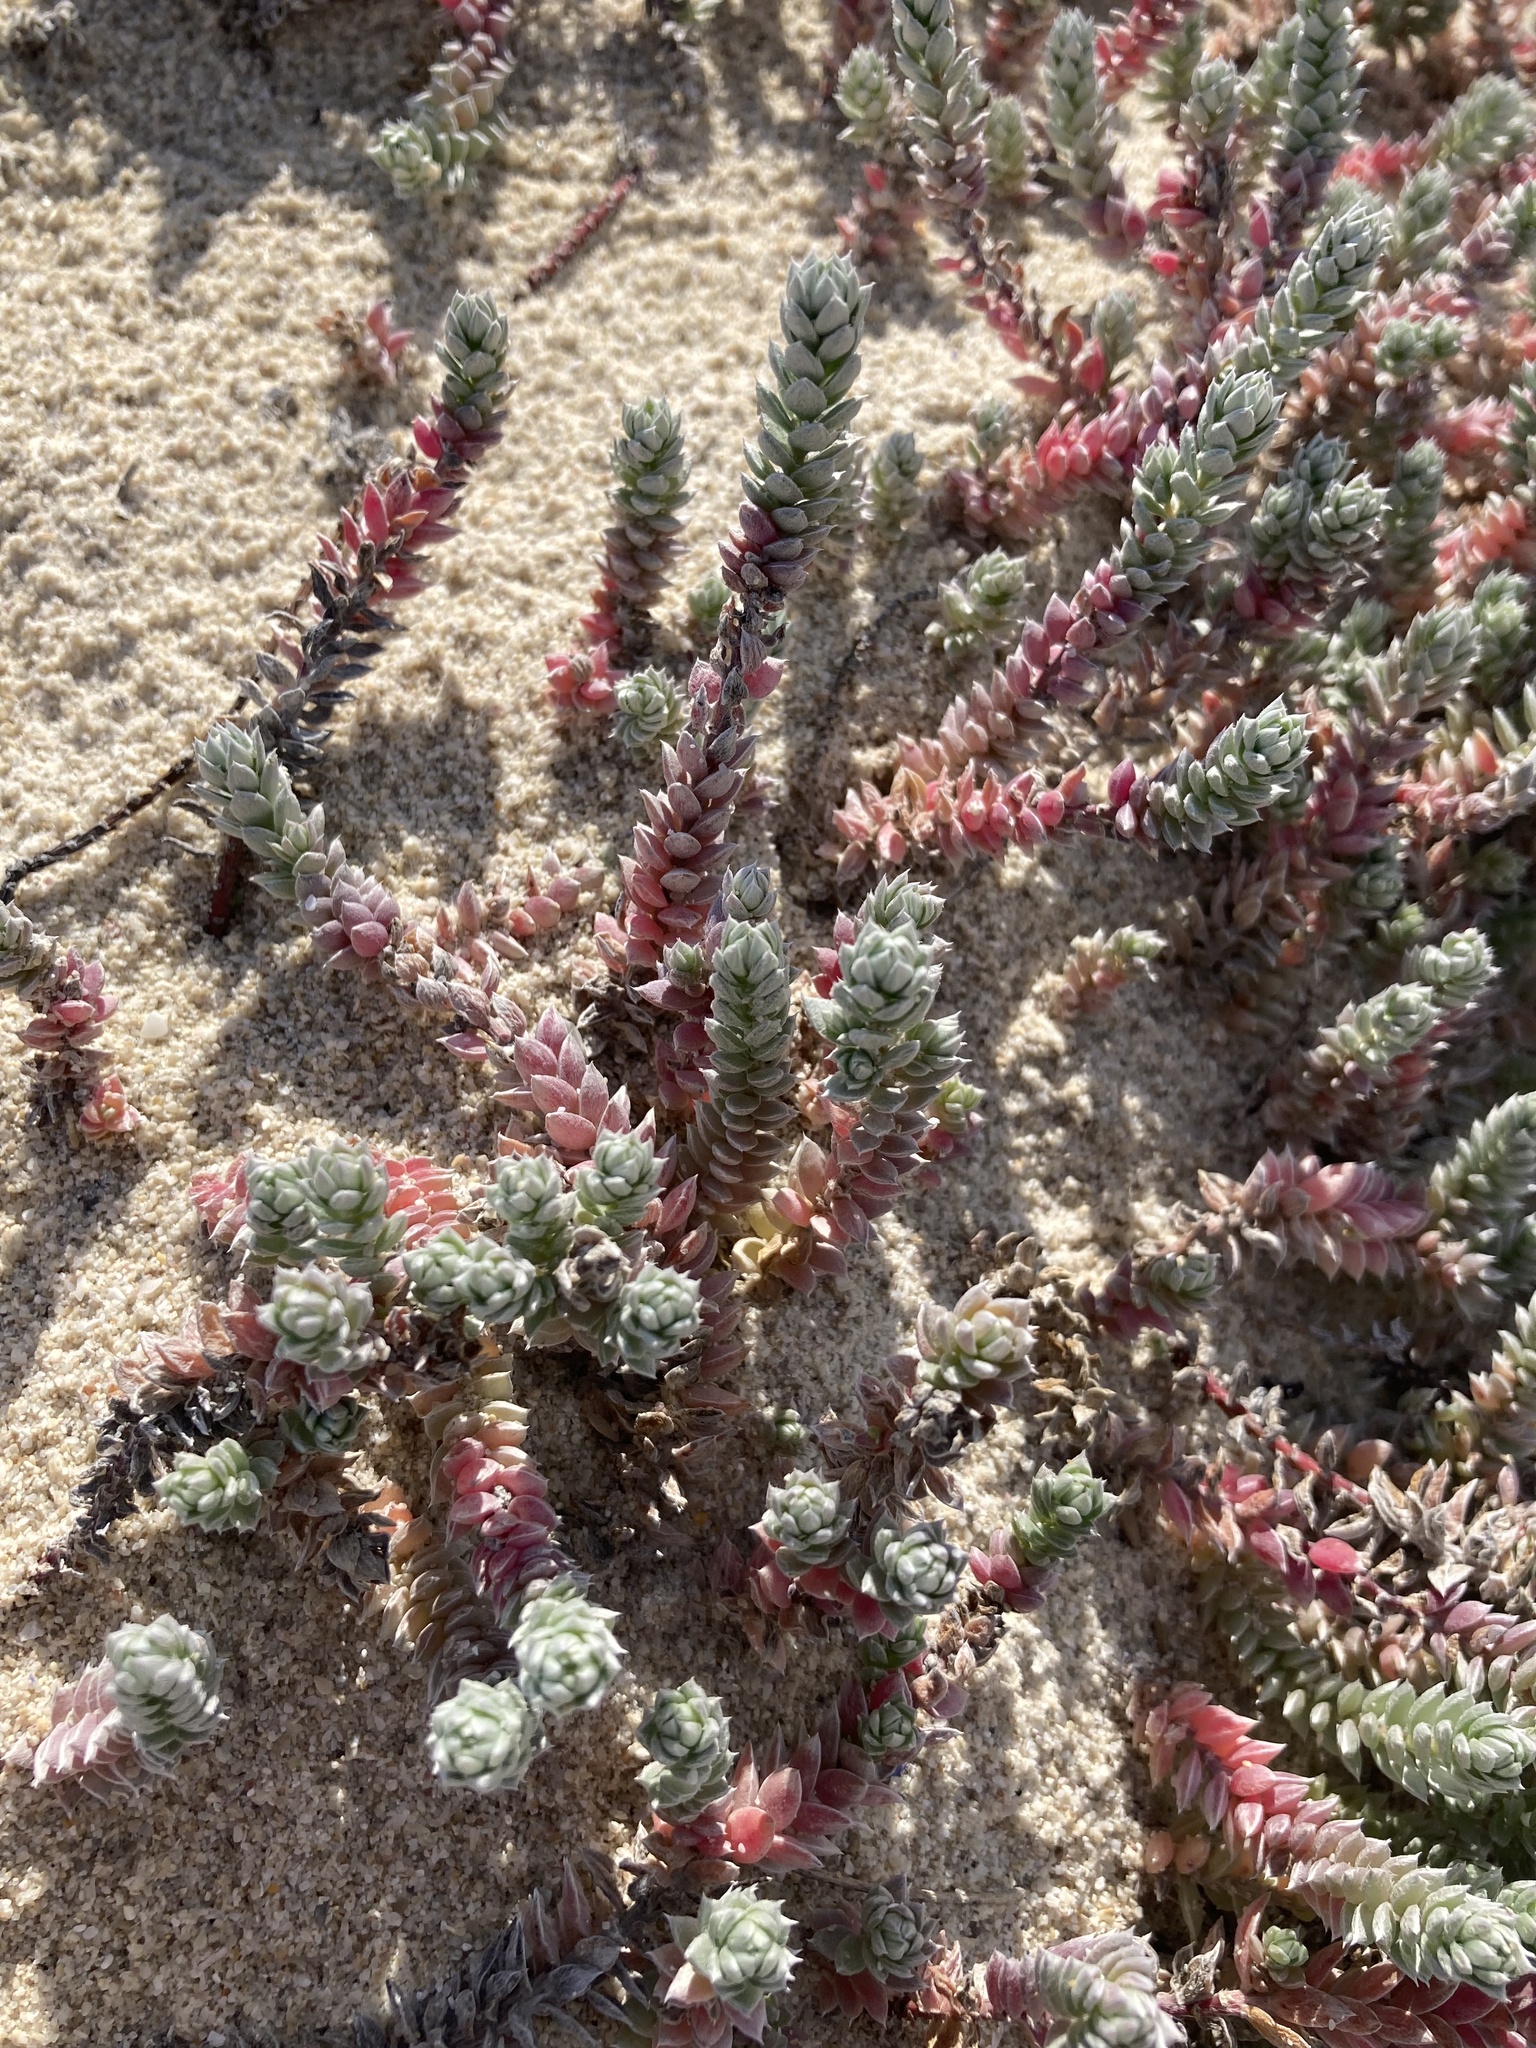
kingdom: Plantae
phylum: Tracheophyta
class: Magnoliopsida
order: Caryophyllales
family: Amaranthaceae
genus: Chenolea
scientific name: Chenolea diffusa
